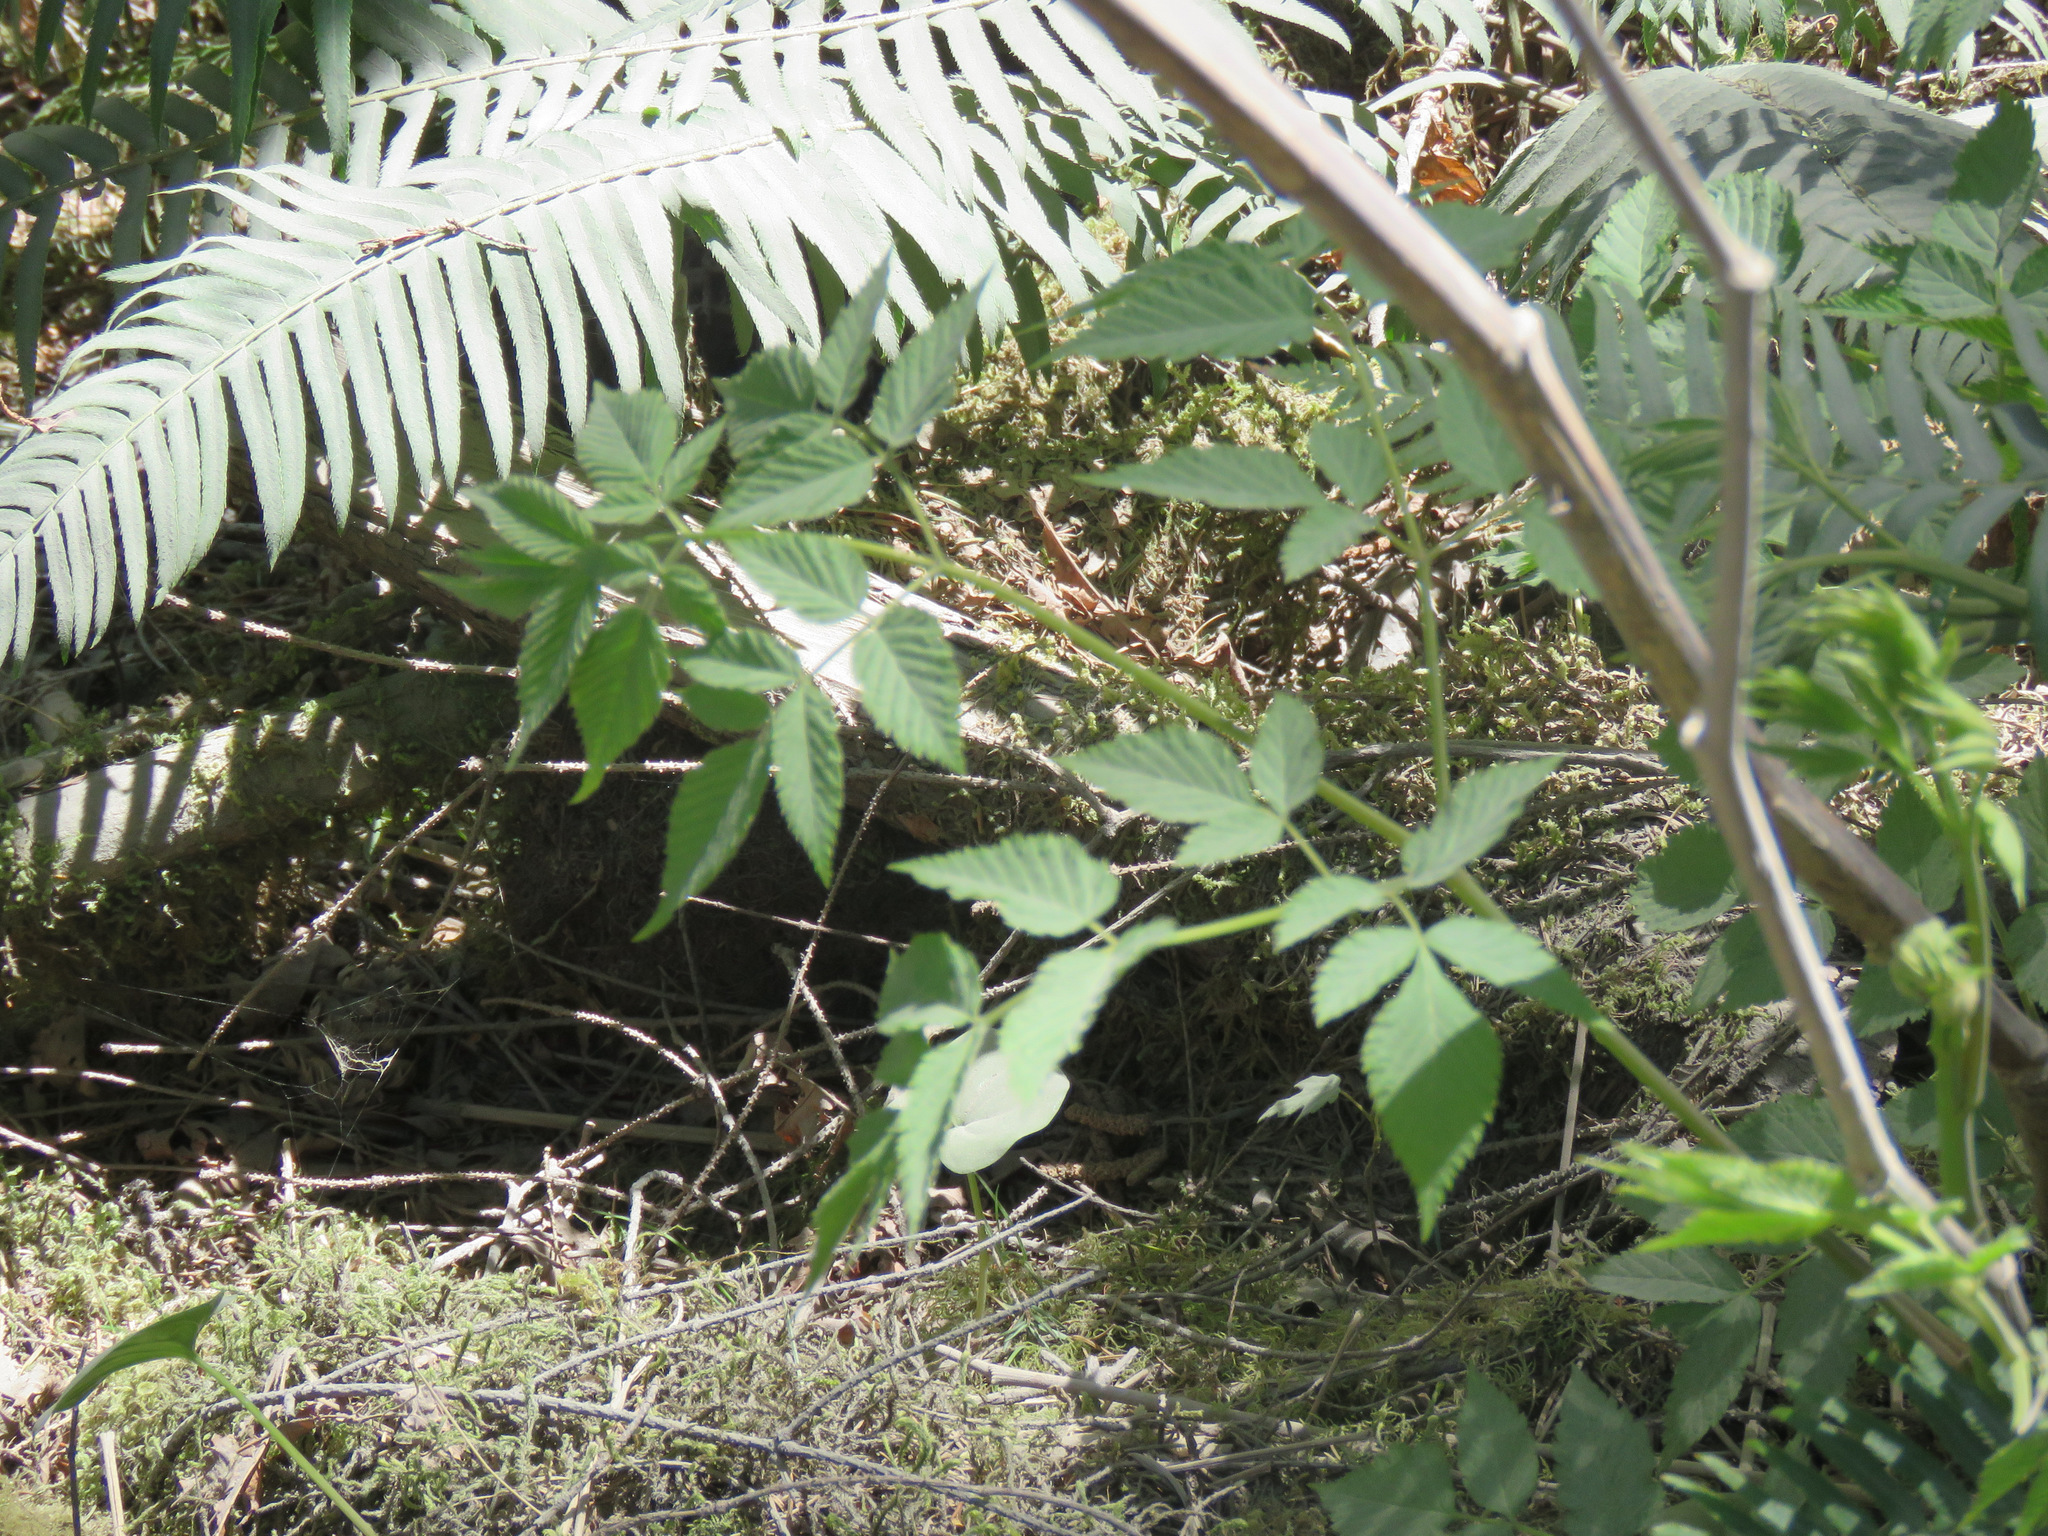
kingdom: Plantae
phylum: Tracheophyta
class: Magnoliopsida
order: Rosales
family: Rosaceae
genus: Aruncus
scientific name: Aruncus dioicus
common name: Buck's-beard
